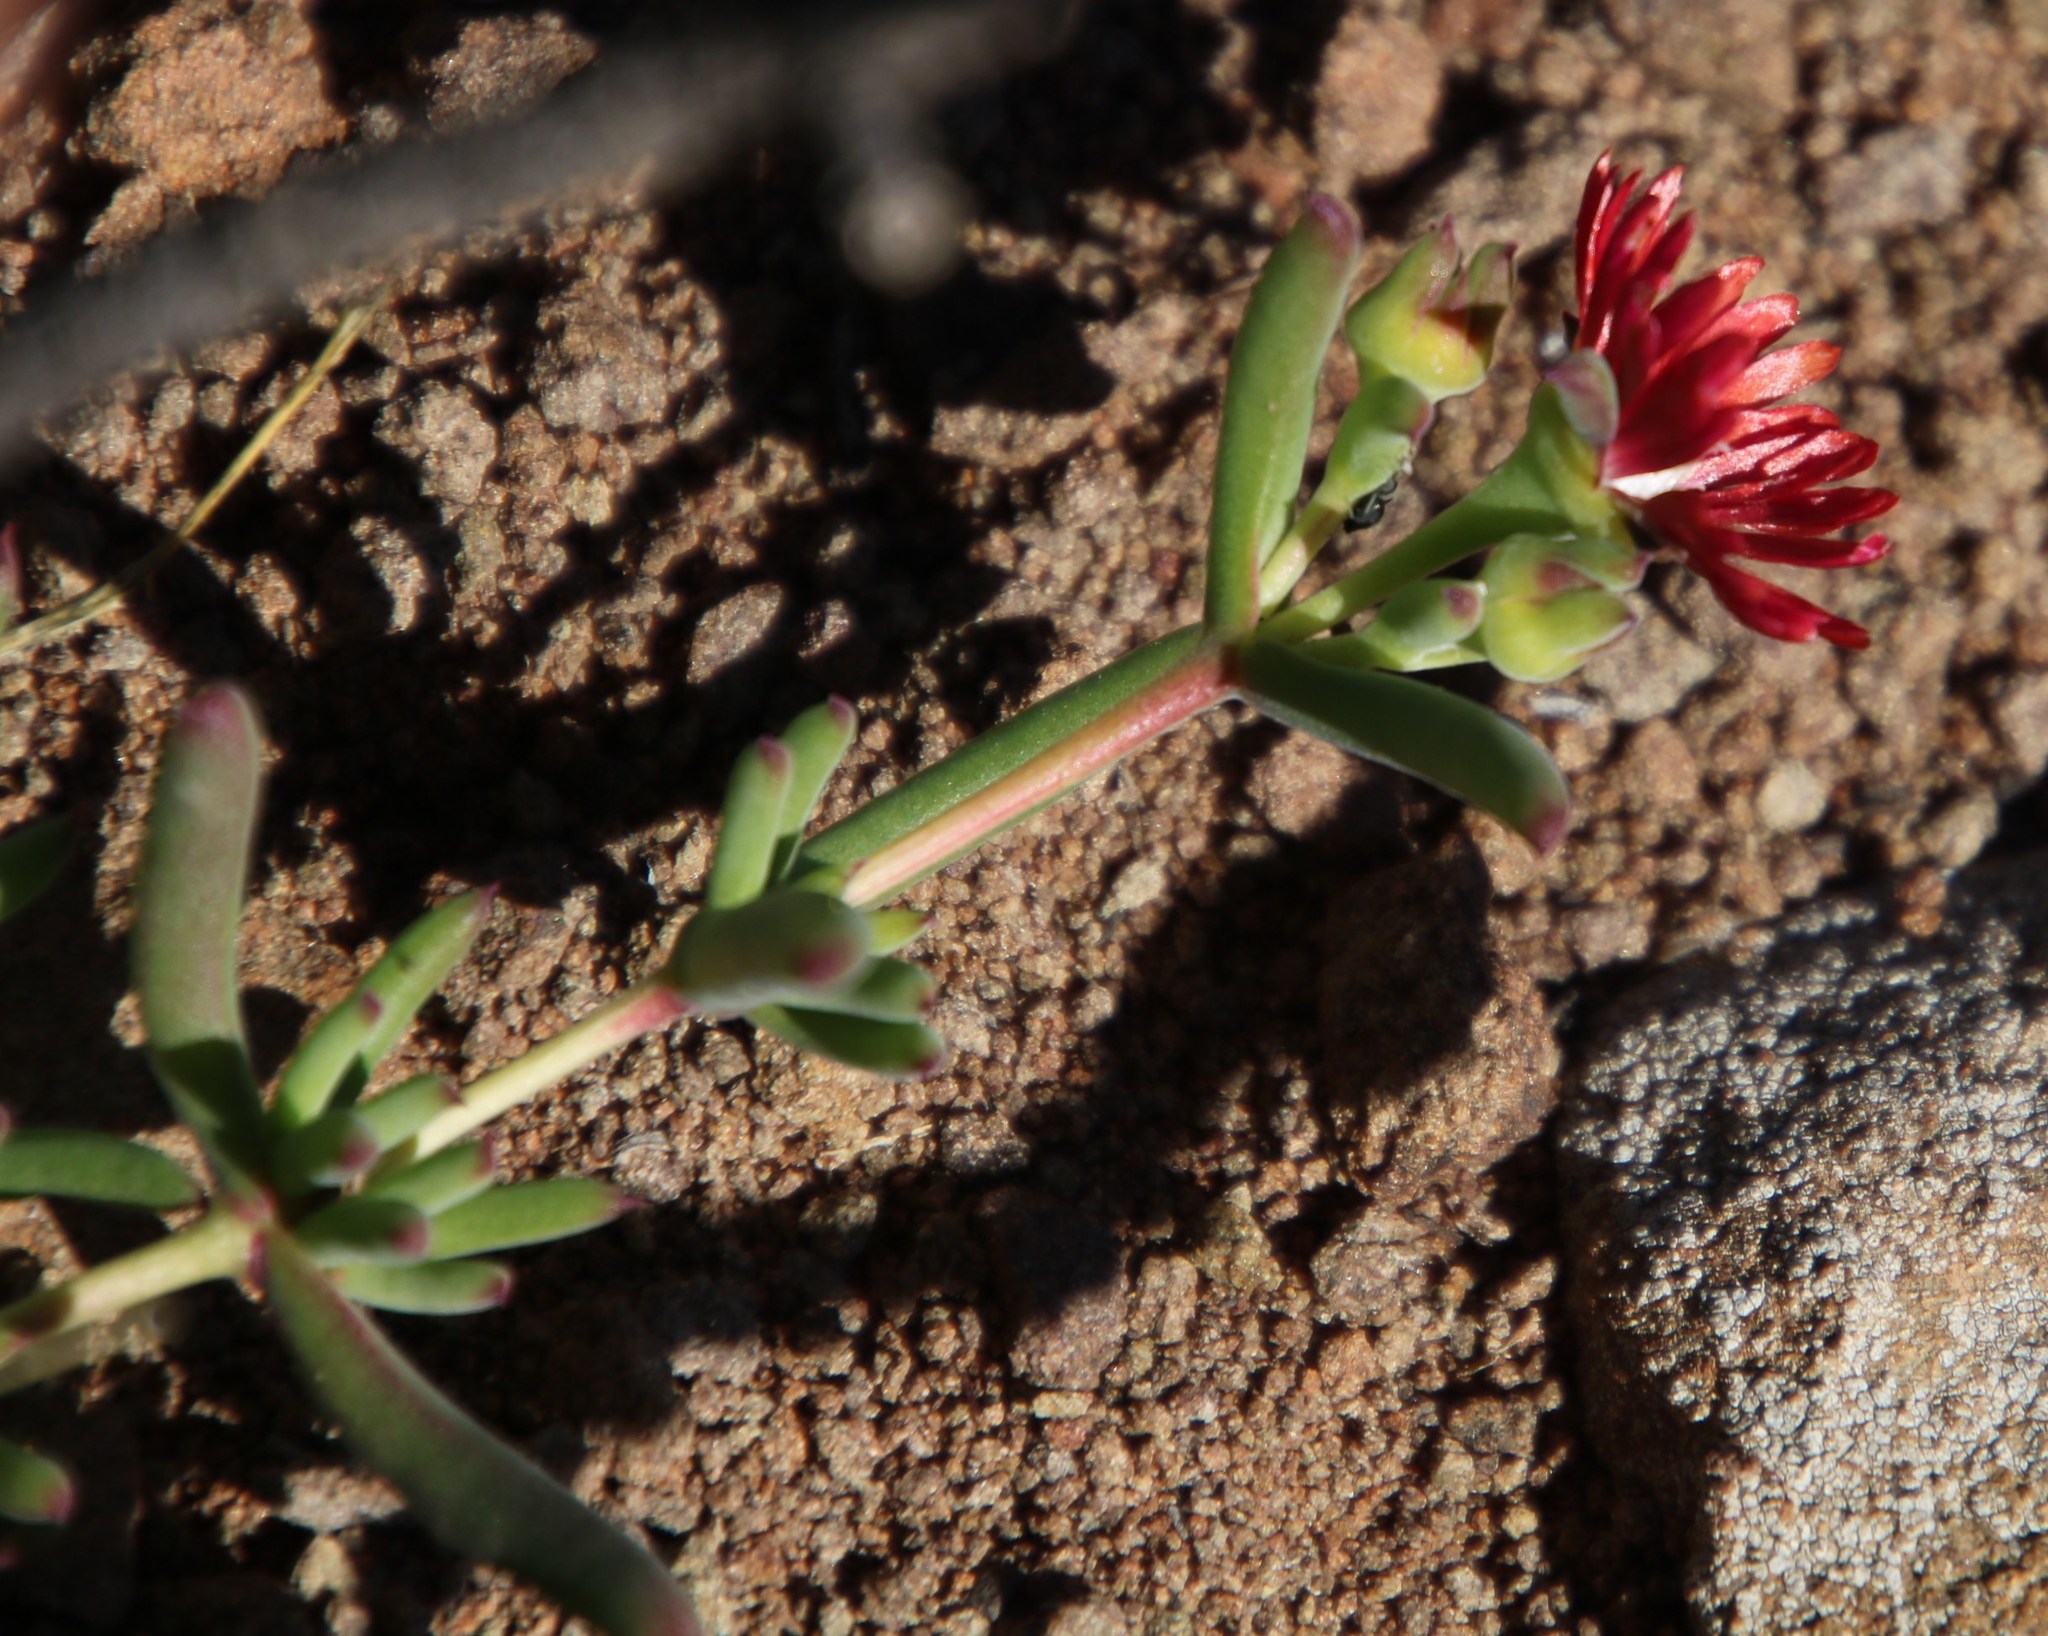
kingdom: Plantae
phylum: Tracheophyta
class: Magnoliopsida
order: Caryophyllales
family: Aizoaceae
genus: Delosperma
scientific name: Delosperma ornatulum
